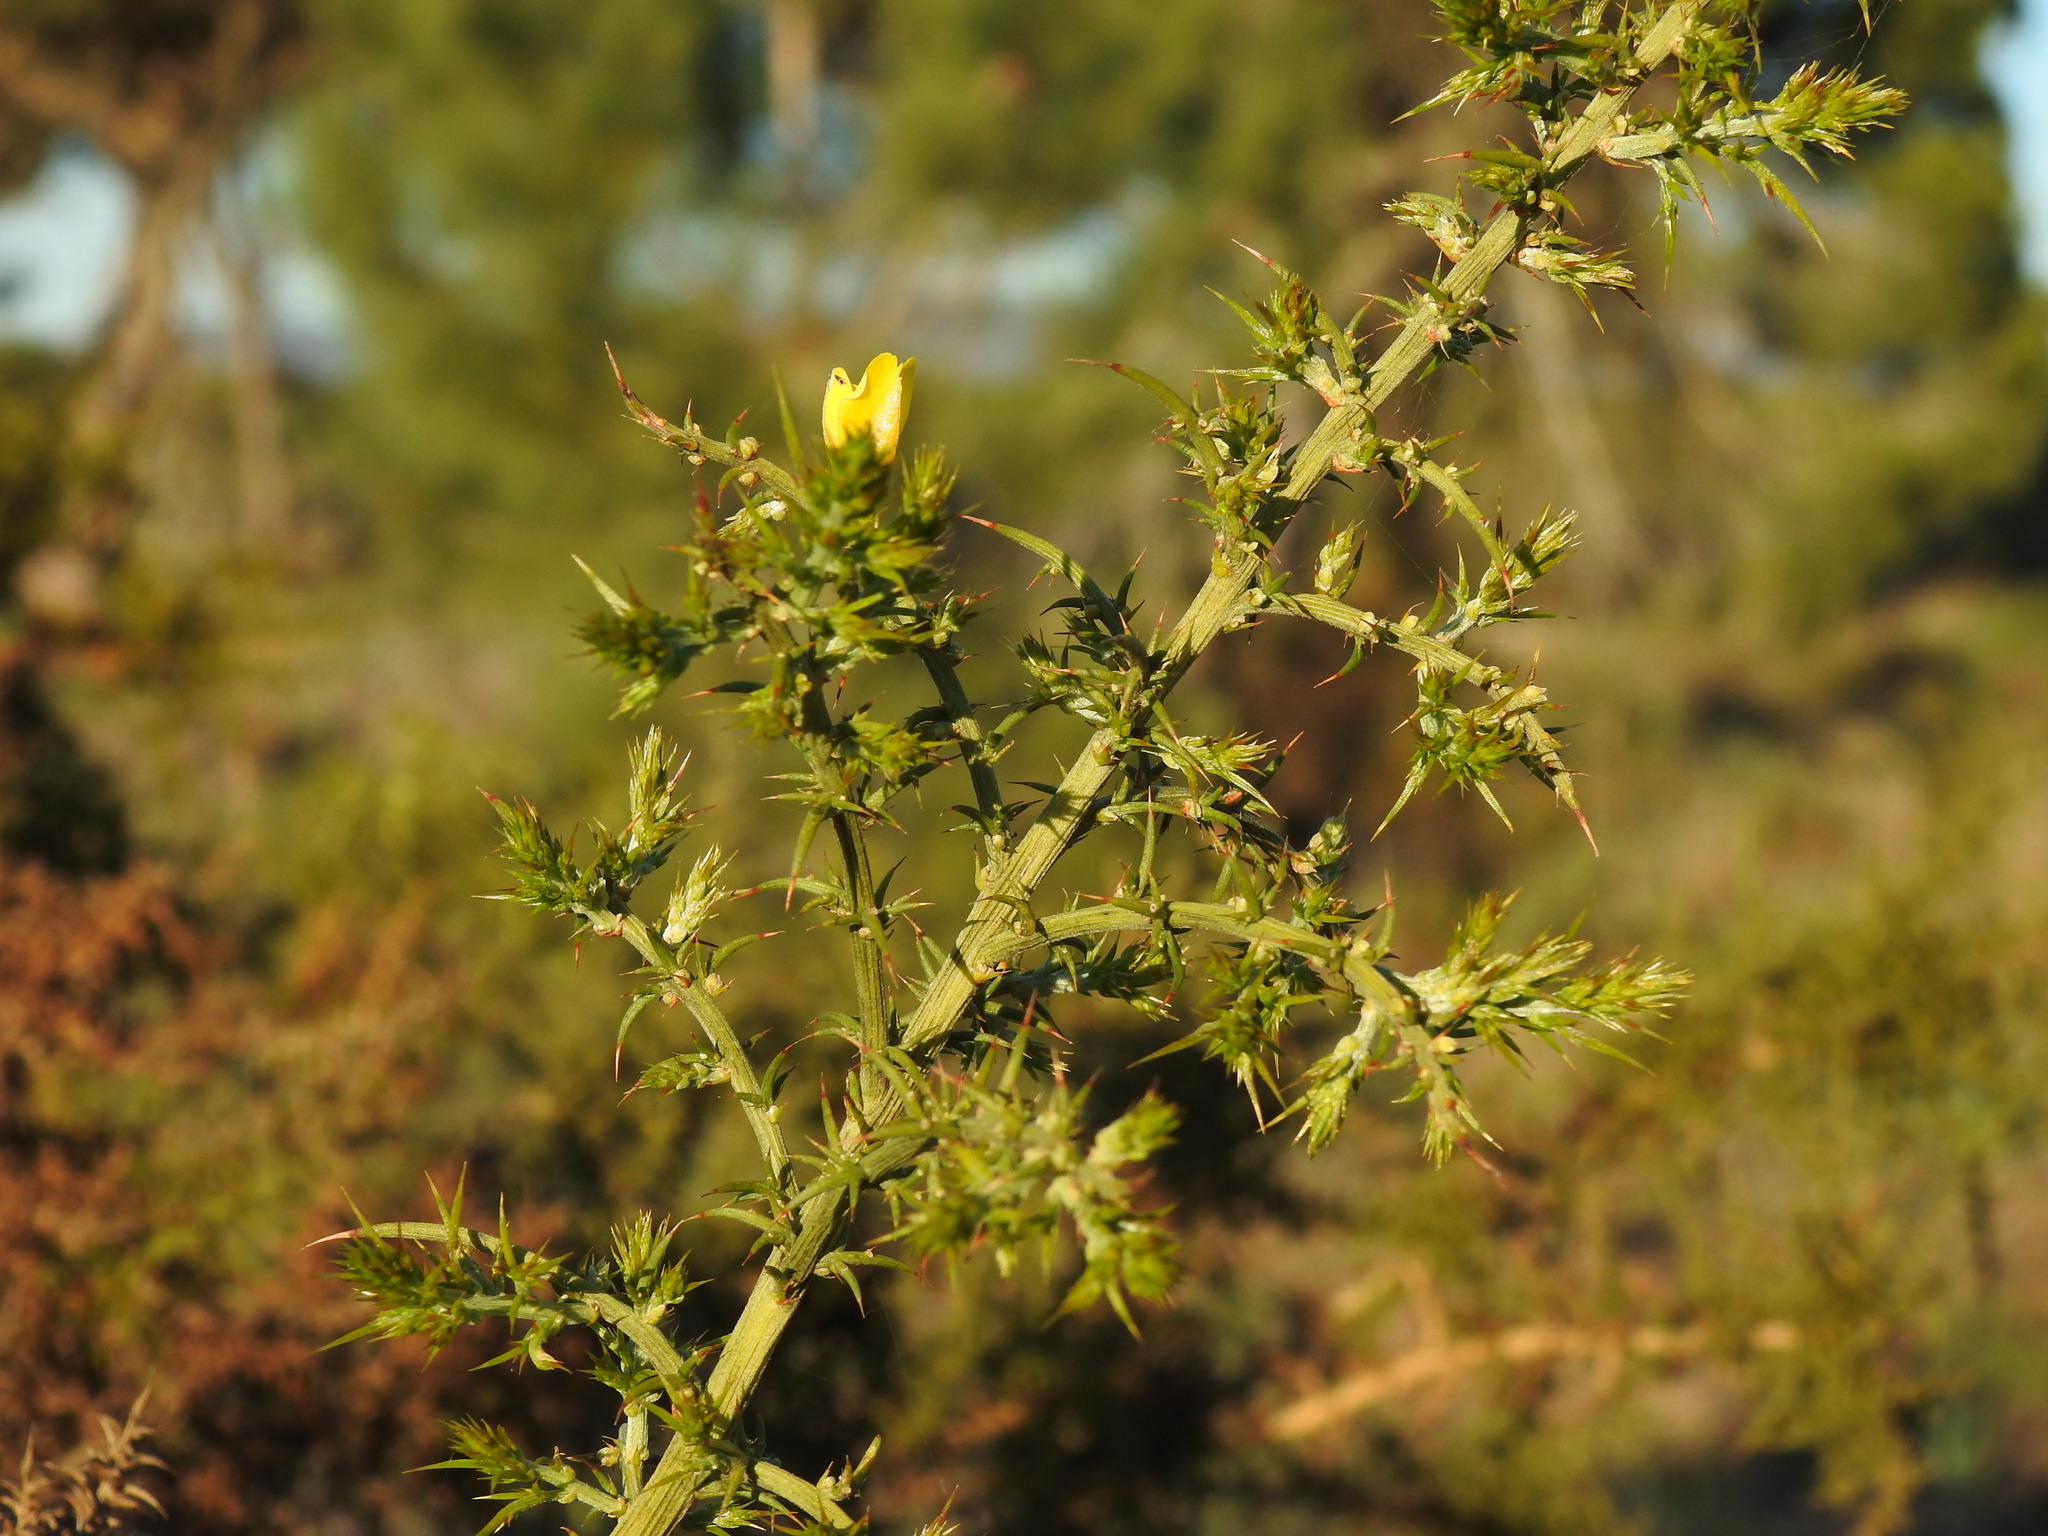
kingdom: Plantae
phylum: Tracheophyta
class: Magnoliopsida
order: Fabales
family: Fabaceae
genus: Ulex
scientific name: Ulex argenteus
